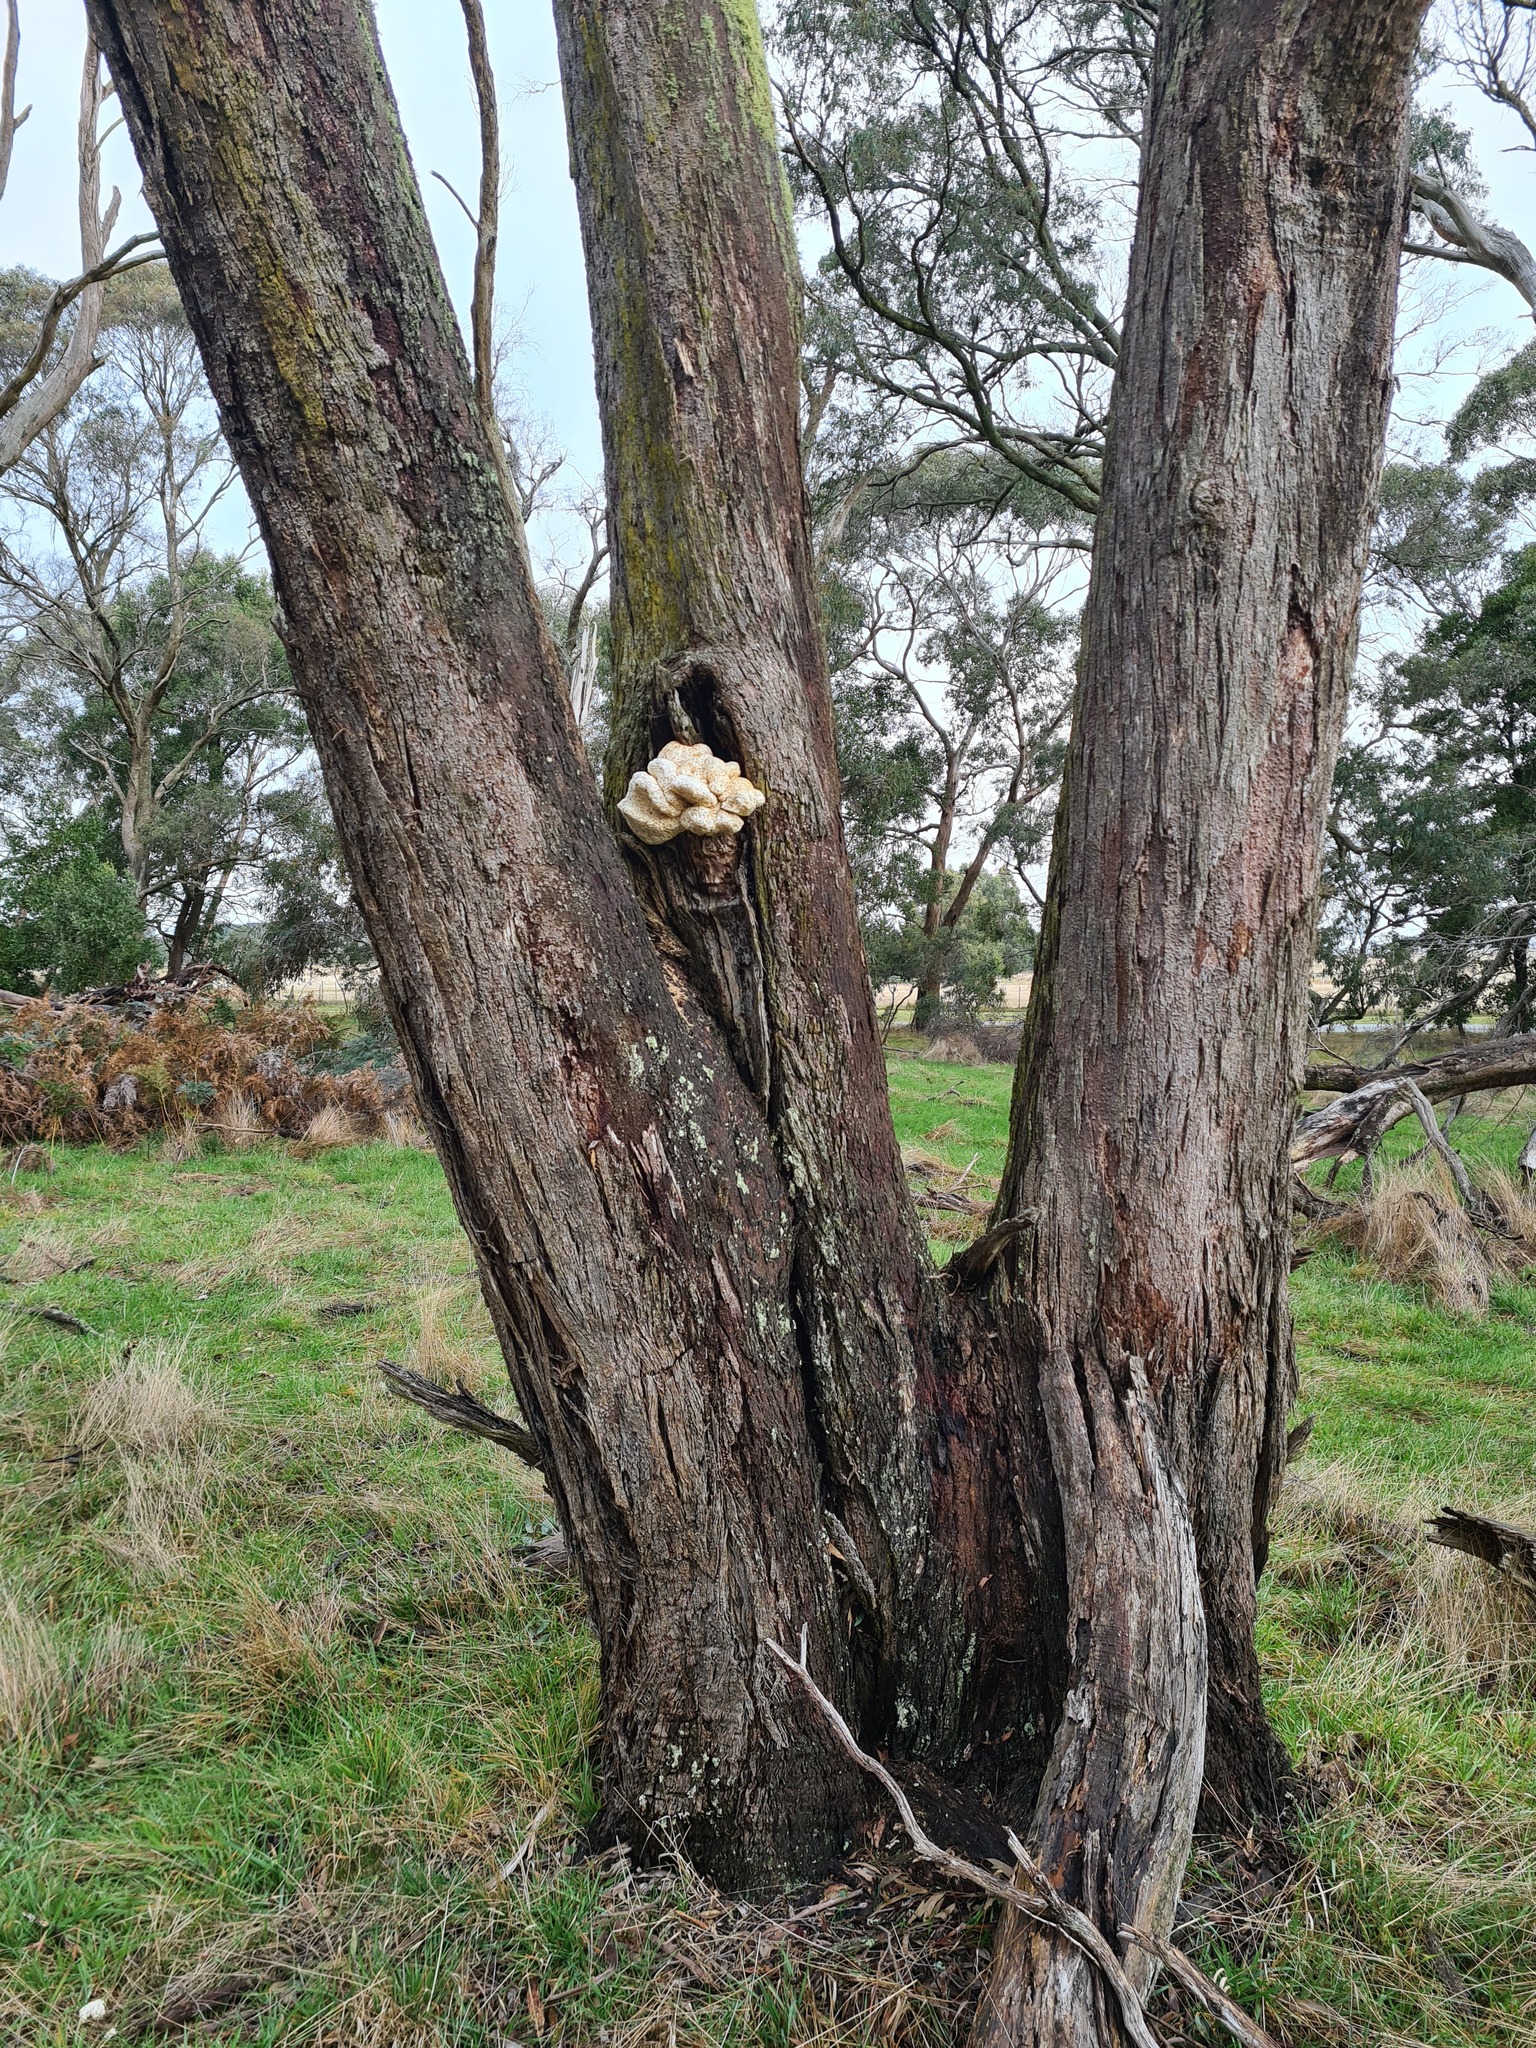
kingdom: Fungi
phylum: Basidiomycota
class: Agaricomycetes
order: Polyporales
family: Laetiporaceae
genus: Laetiporus
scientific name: Laetiporus portentosus
